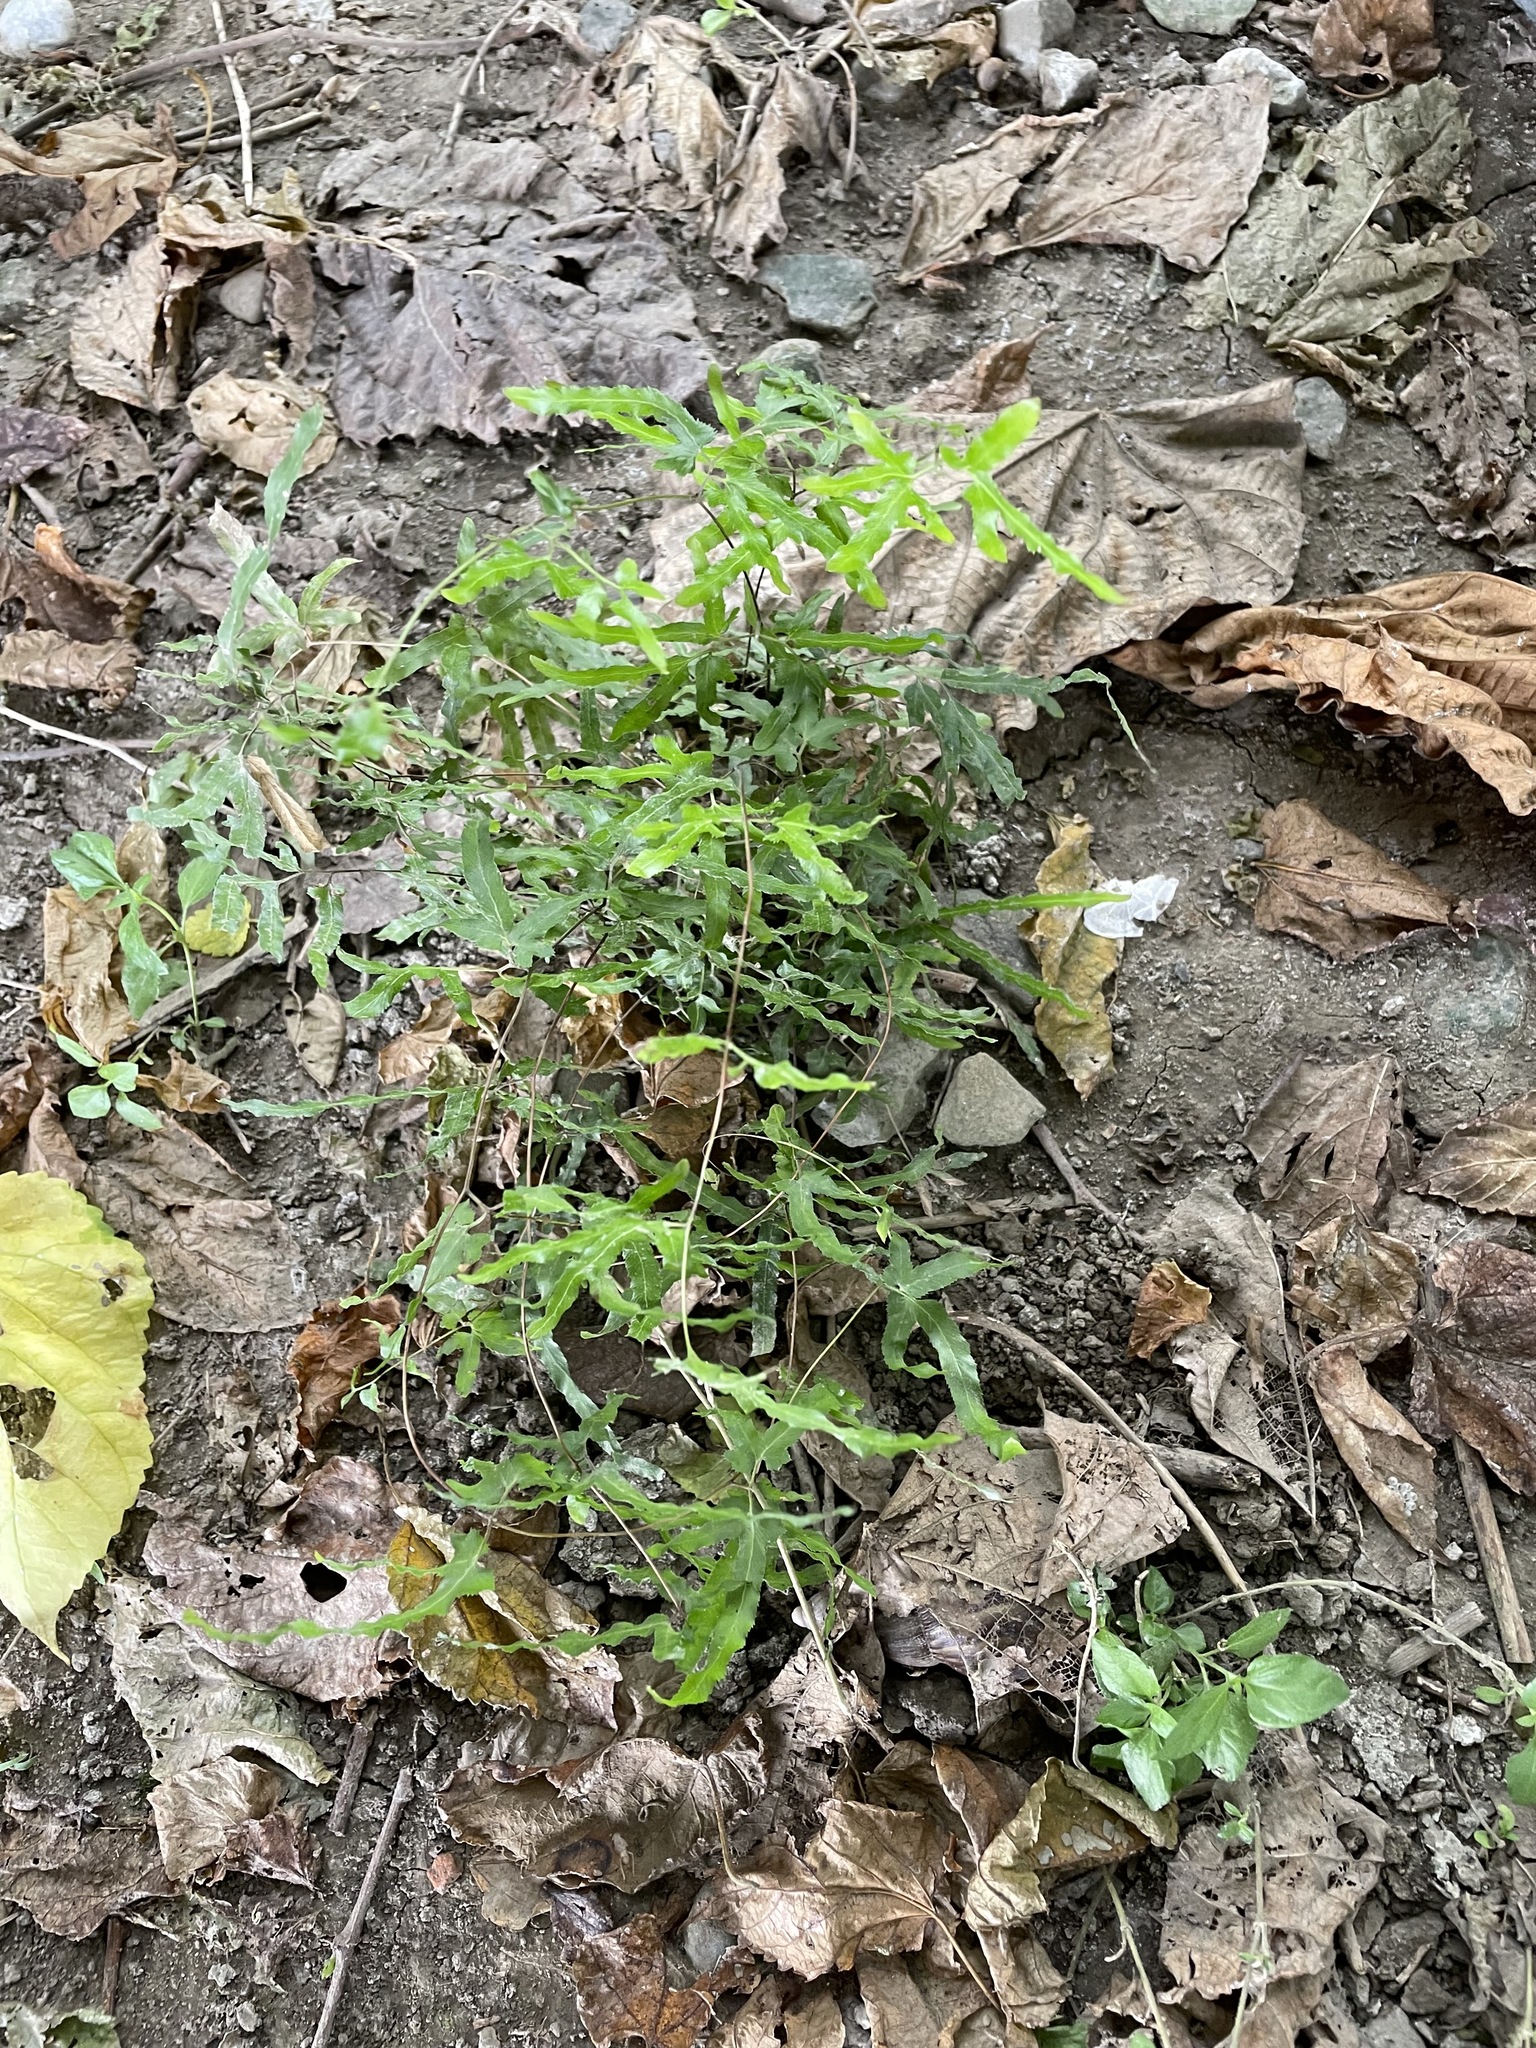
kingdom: Plantae
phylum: Tracheophyta
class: Polypodiopsida
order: Schizaeales
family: Lygodiaceae
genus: Lygodium
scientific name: Lygodium japonicum
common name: Japanese climbing fern
